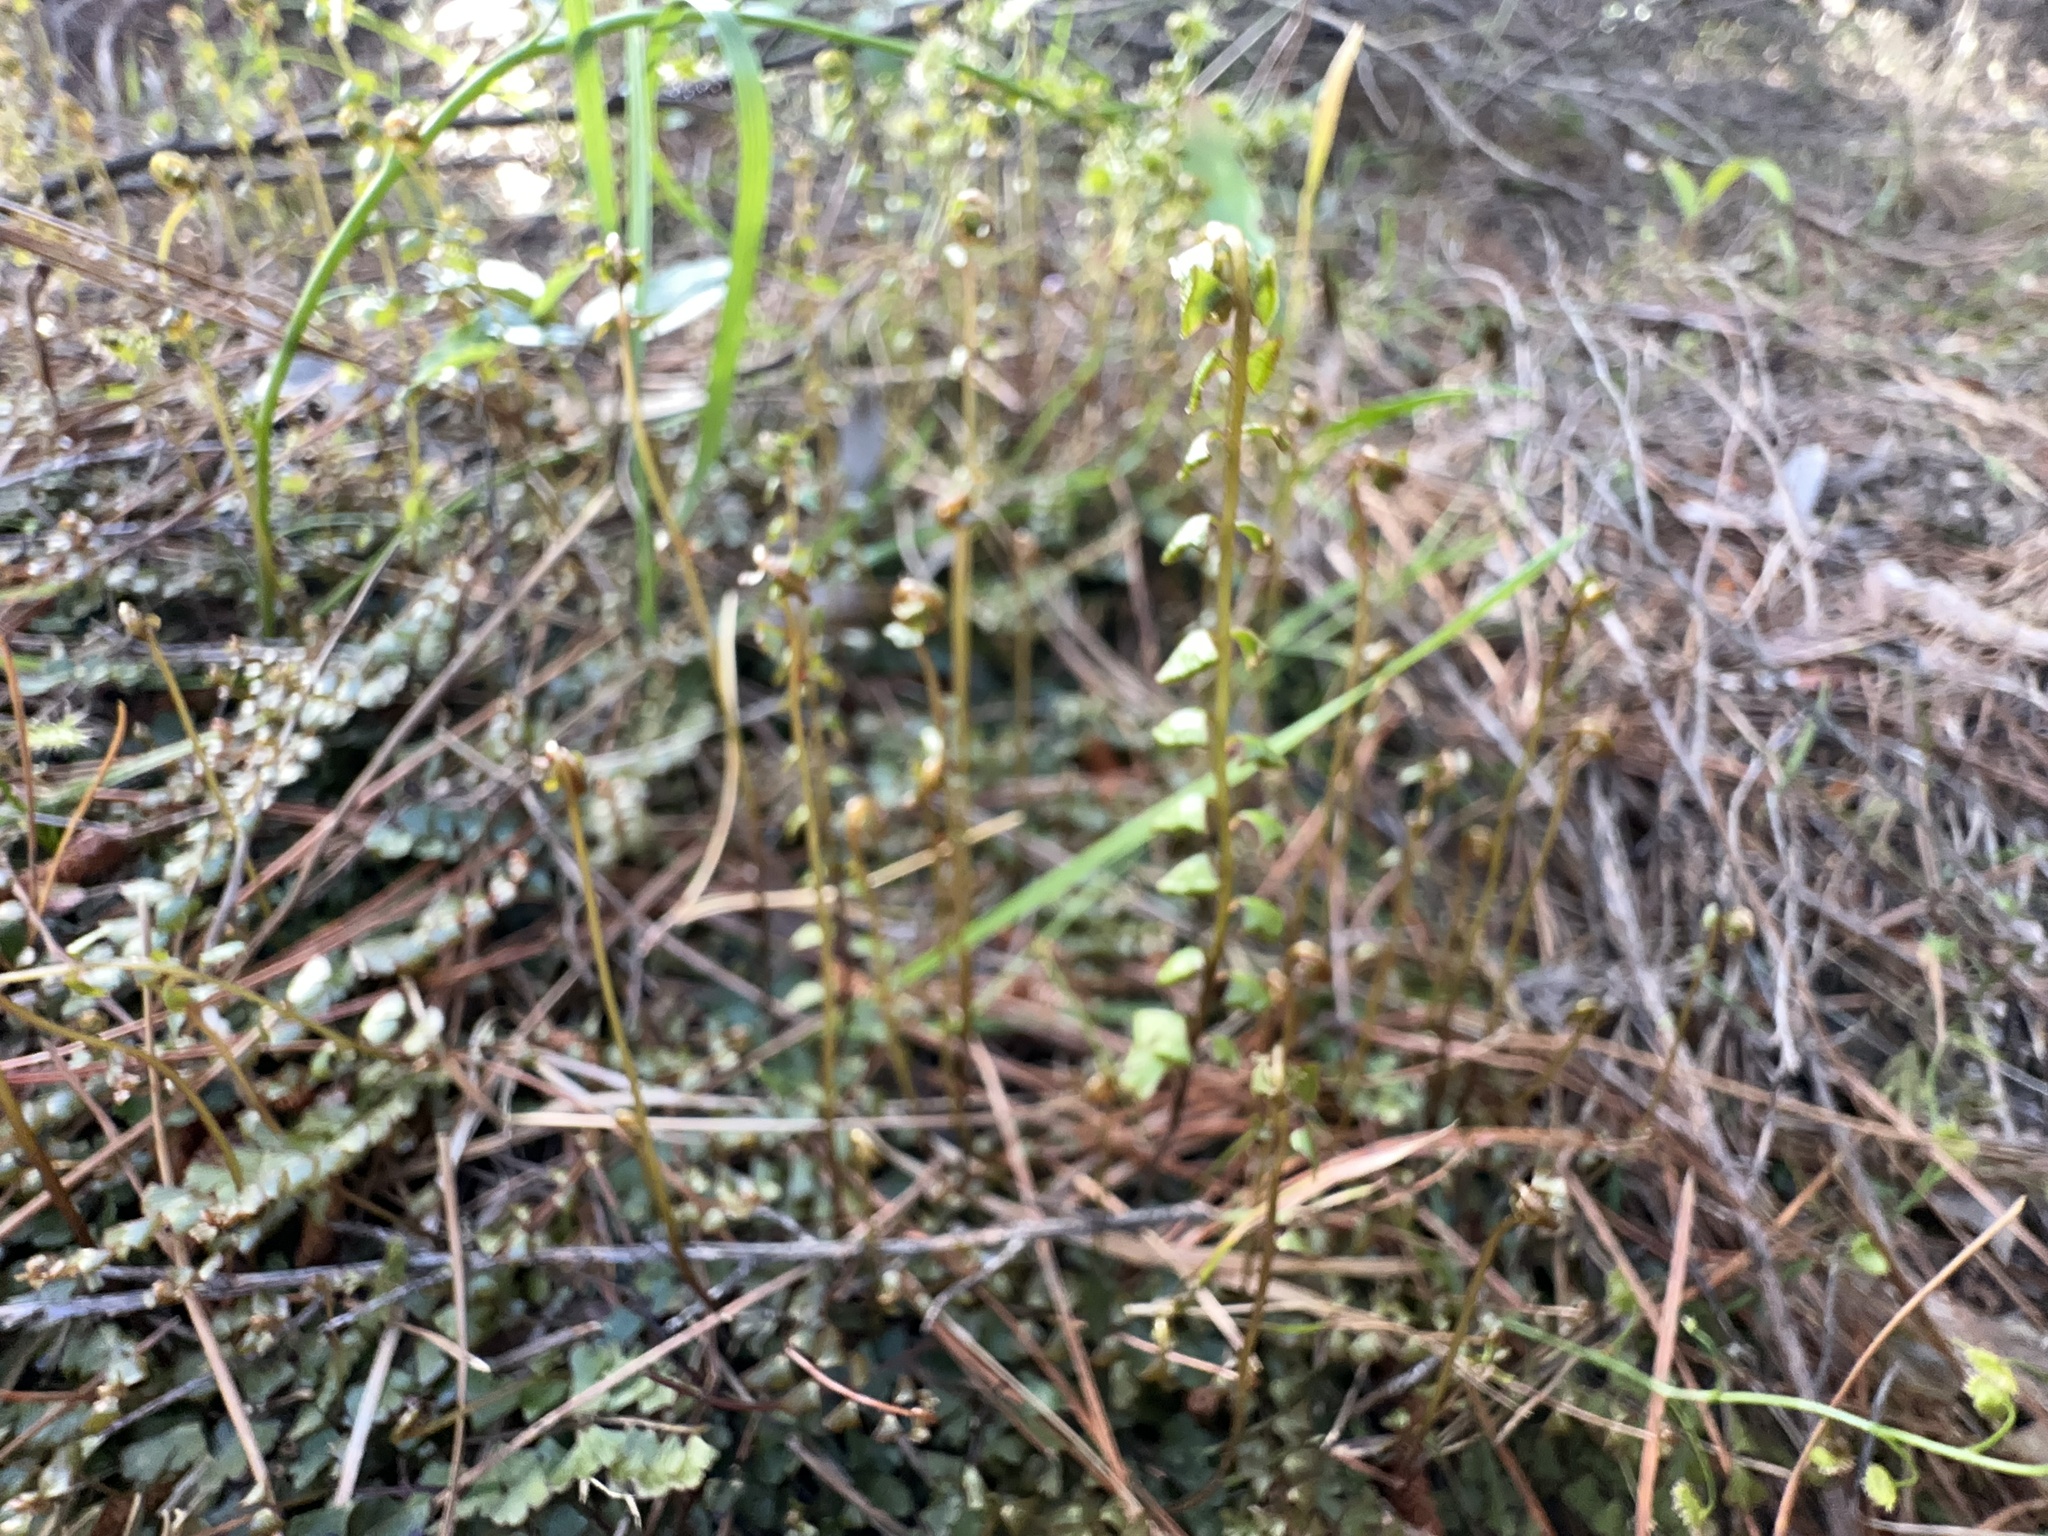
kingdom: Plantae
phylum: Tracheophyta
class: Polypodiopsida
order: Polypodiales
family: Lindsaeaceae
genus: Lindsaea
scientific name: Lindsaea linearis
